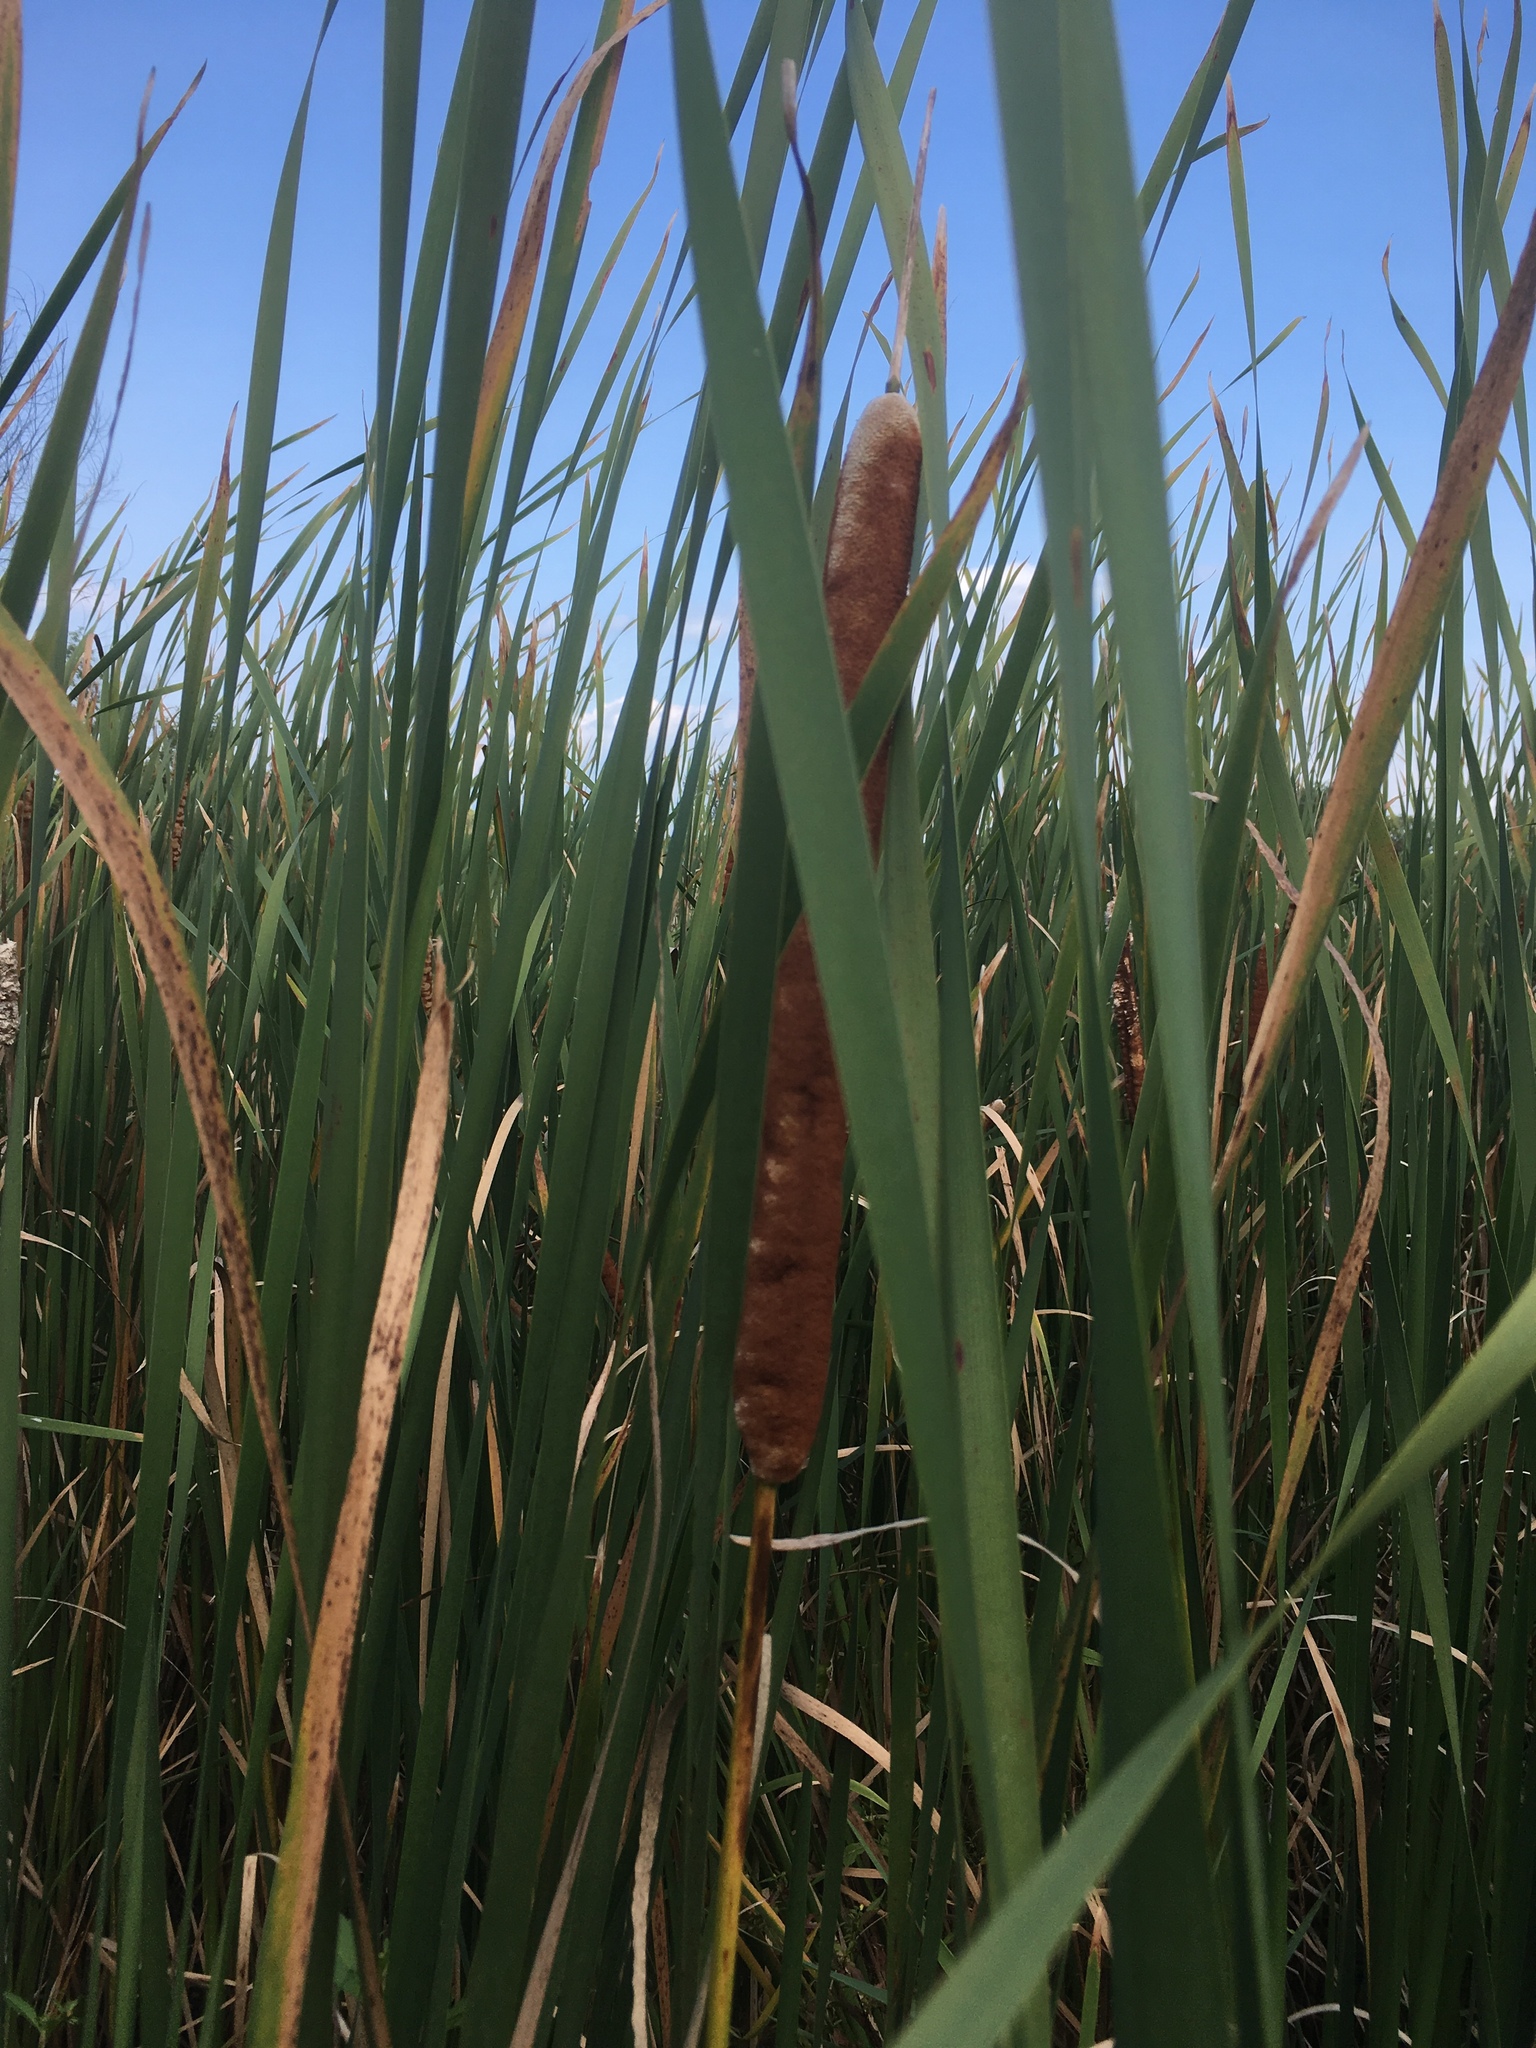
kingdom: Plantae
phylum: Tracheophyta
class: Liliopsida
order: Poales
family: Typhaceae
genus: Typha
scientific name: Typha glauca
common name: Blue cattail
